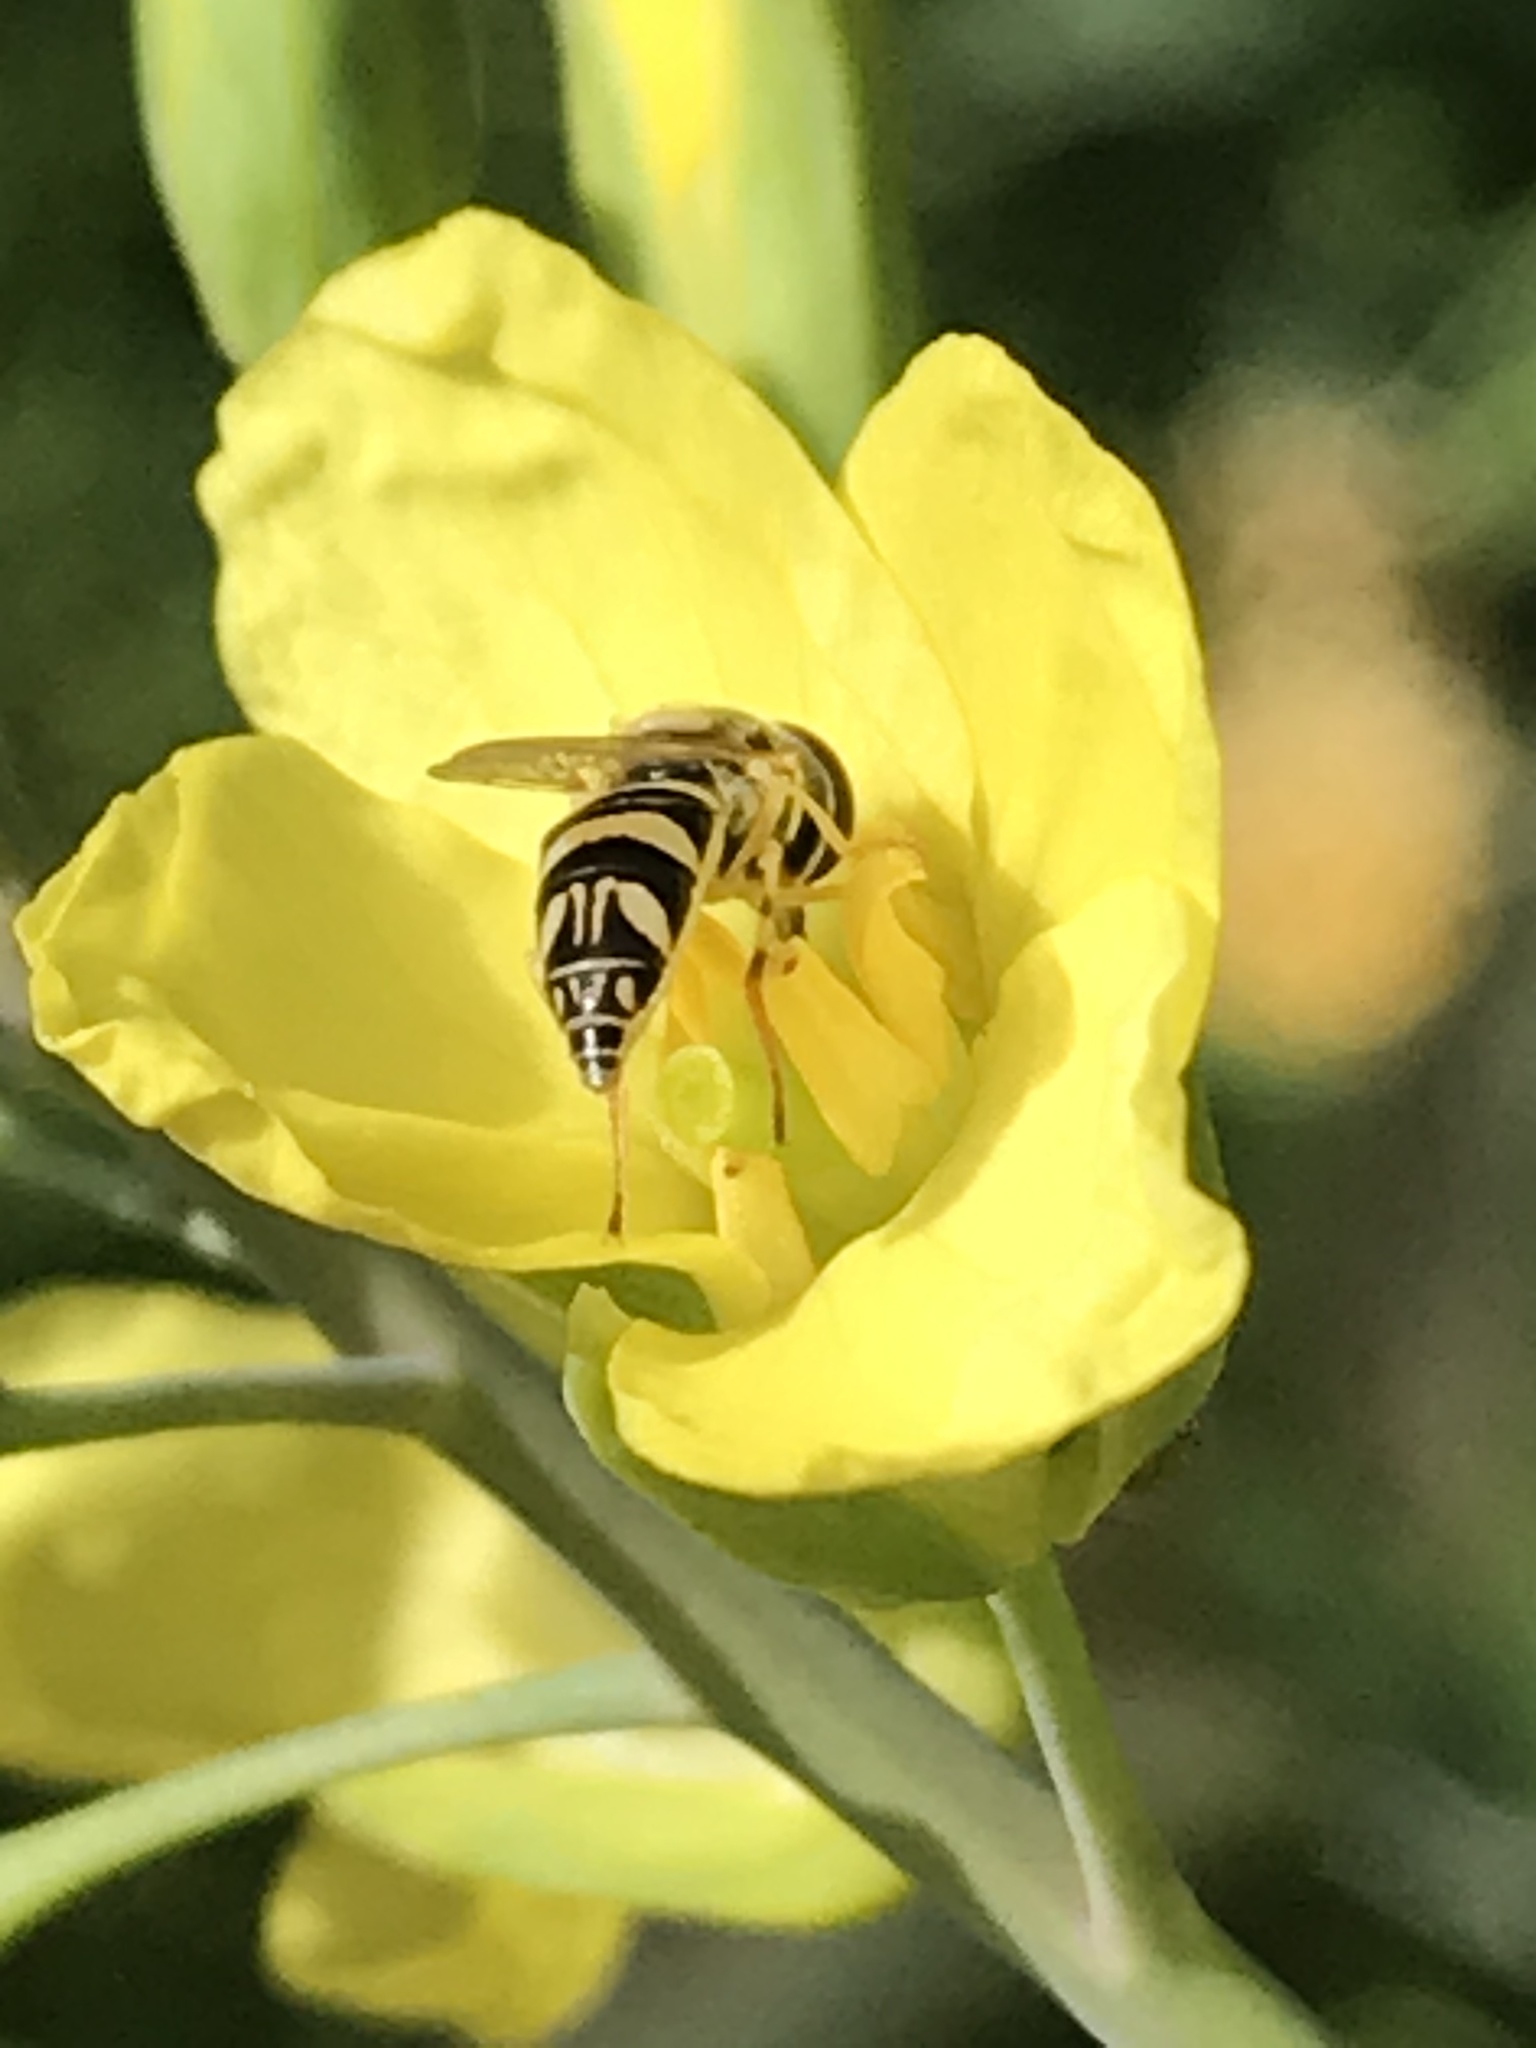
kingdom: Animalia
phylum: Arthropoda
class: Insecta
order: Diptera
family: Syrphidae
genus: Allograpta
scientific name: Allograpta exotica
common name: Syrphid fly
